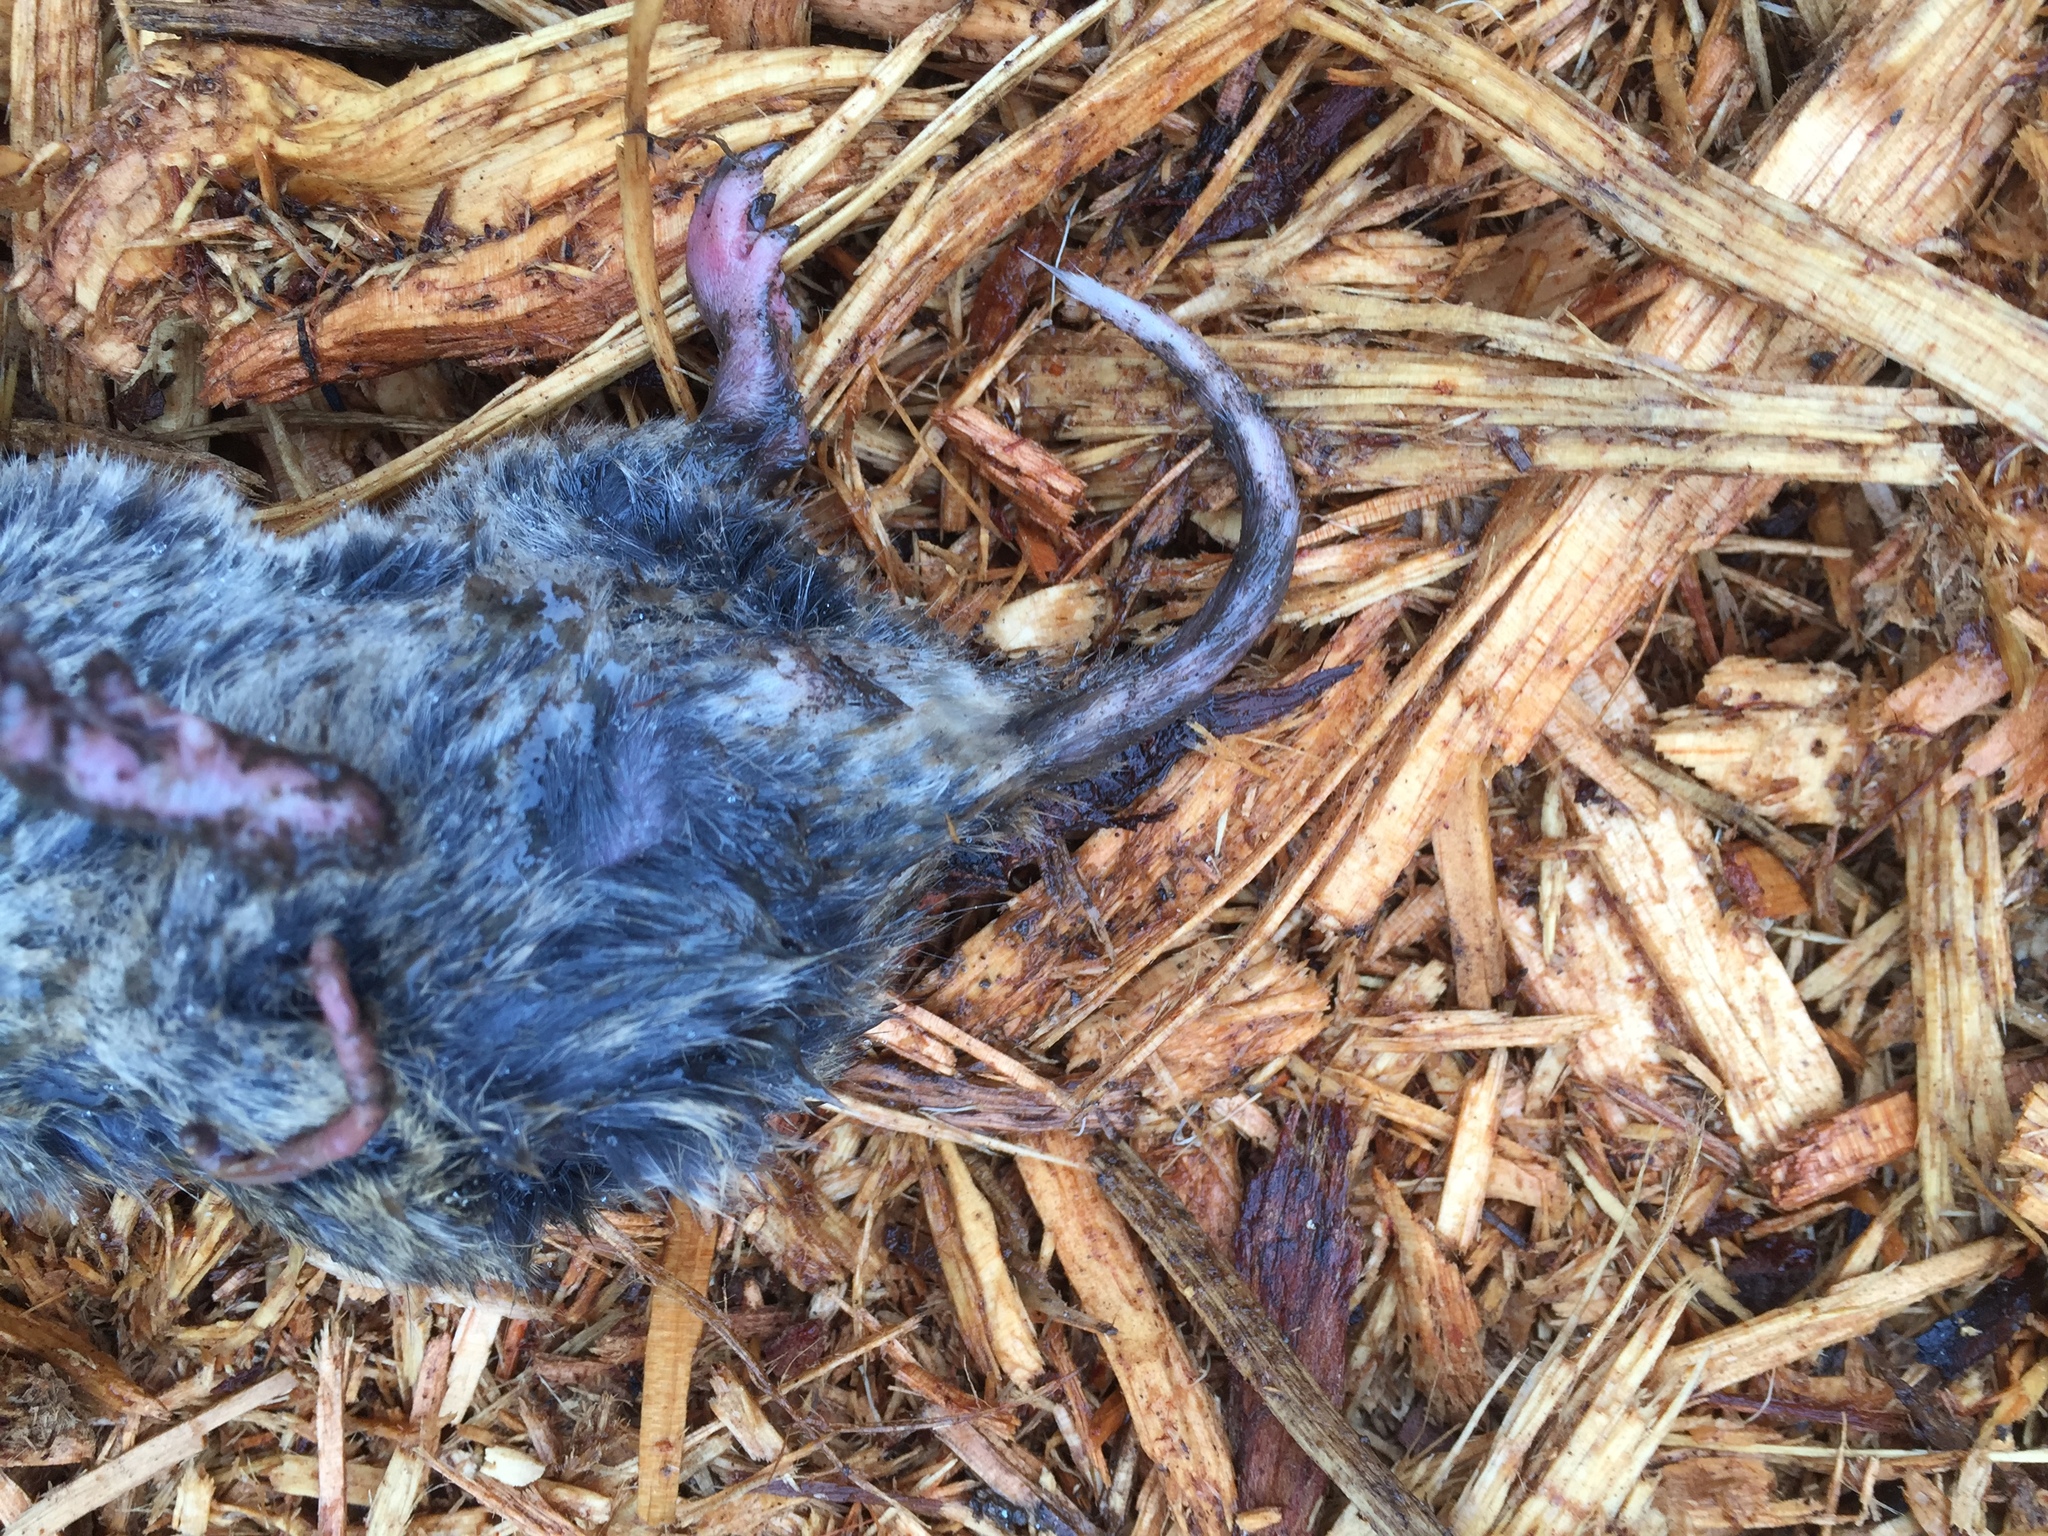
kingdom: Animalia
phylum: Chordata
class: Mammalia
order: Rodentia
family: Geomyidae
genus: Thomomys
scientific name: Thomomys bottae
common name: Botta's pocket gopher
